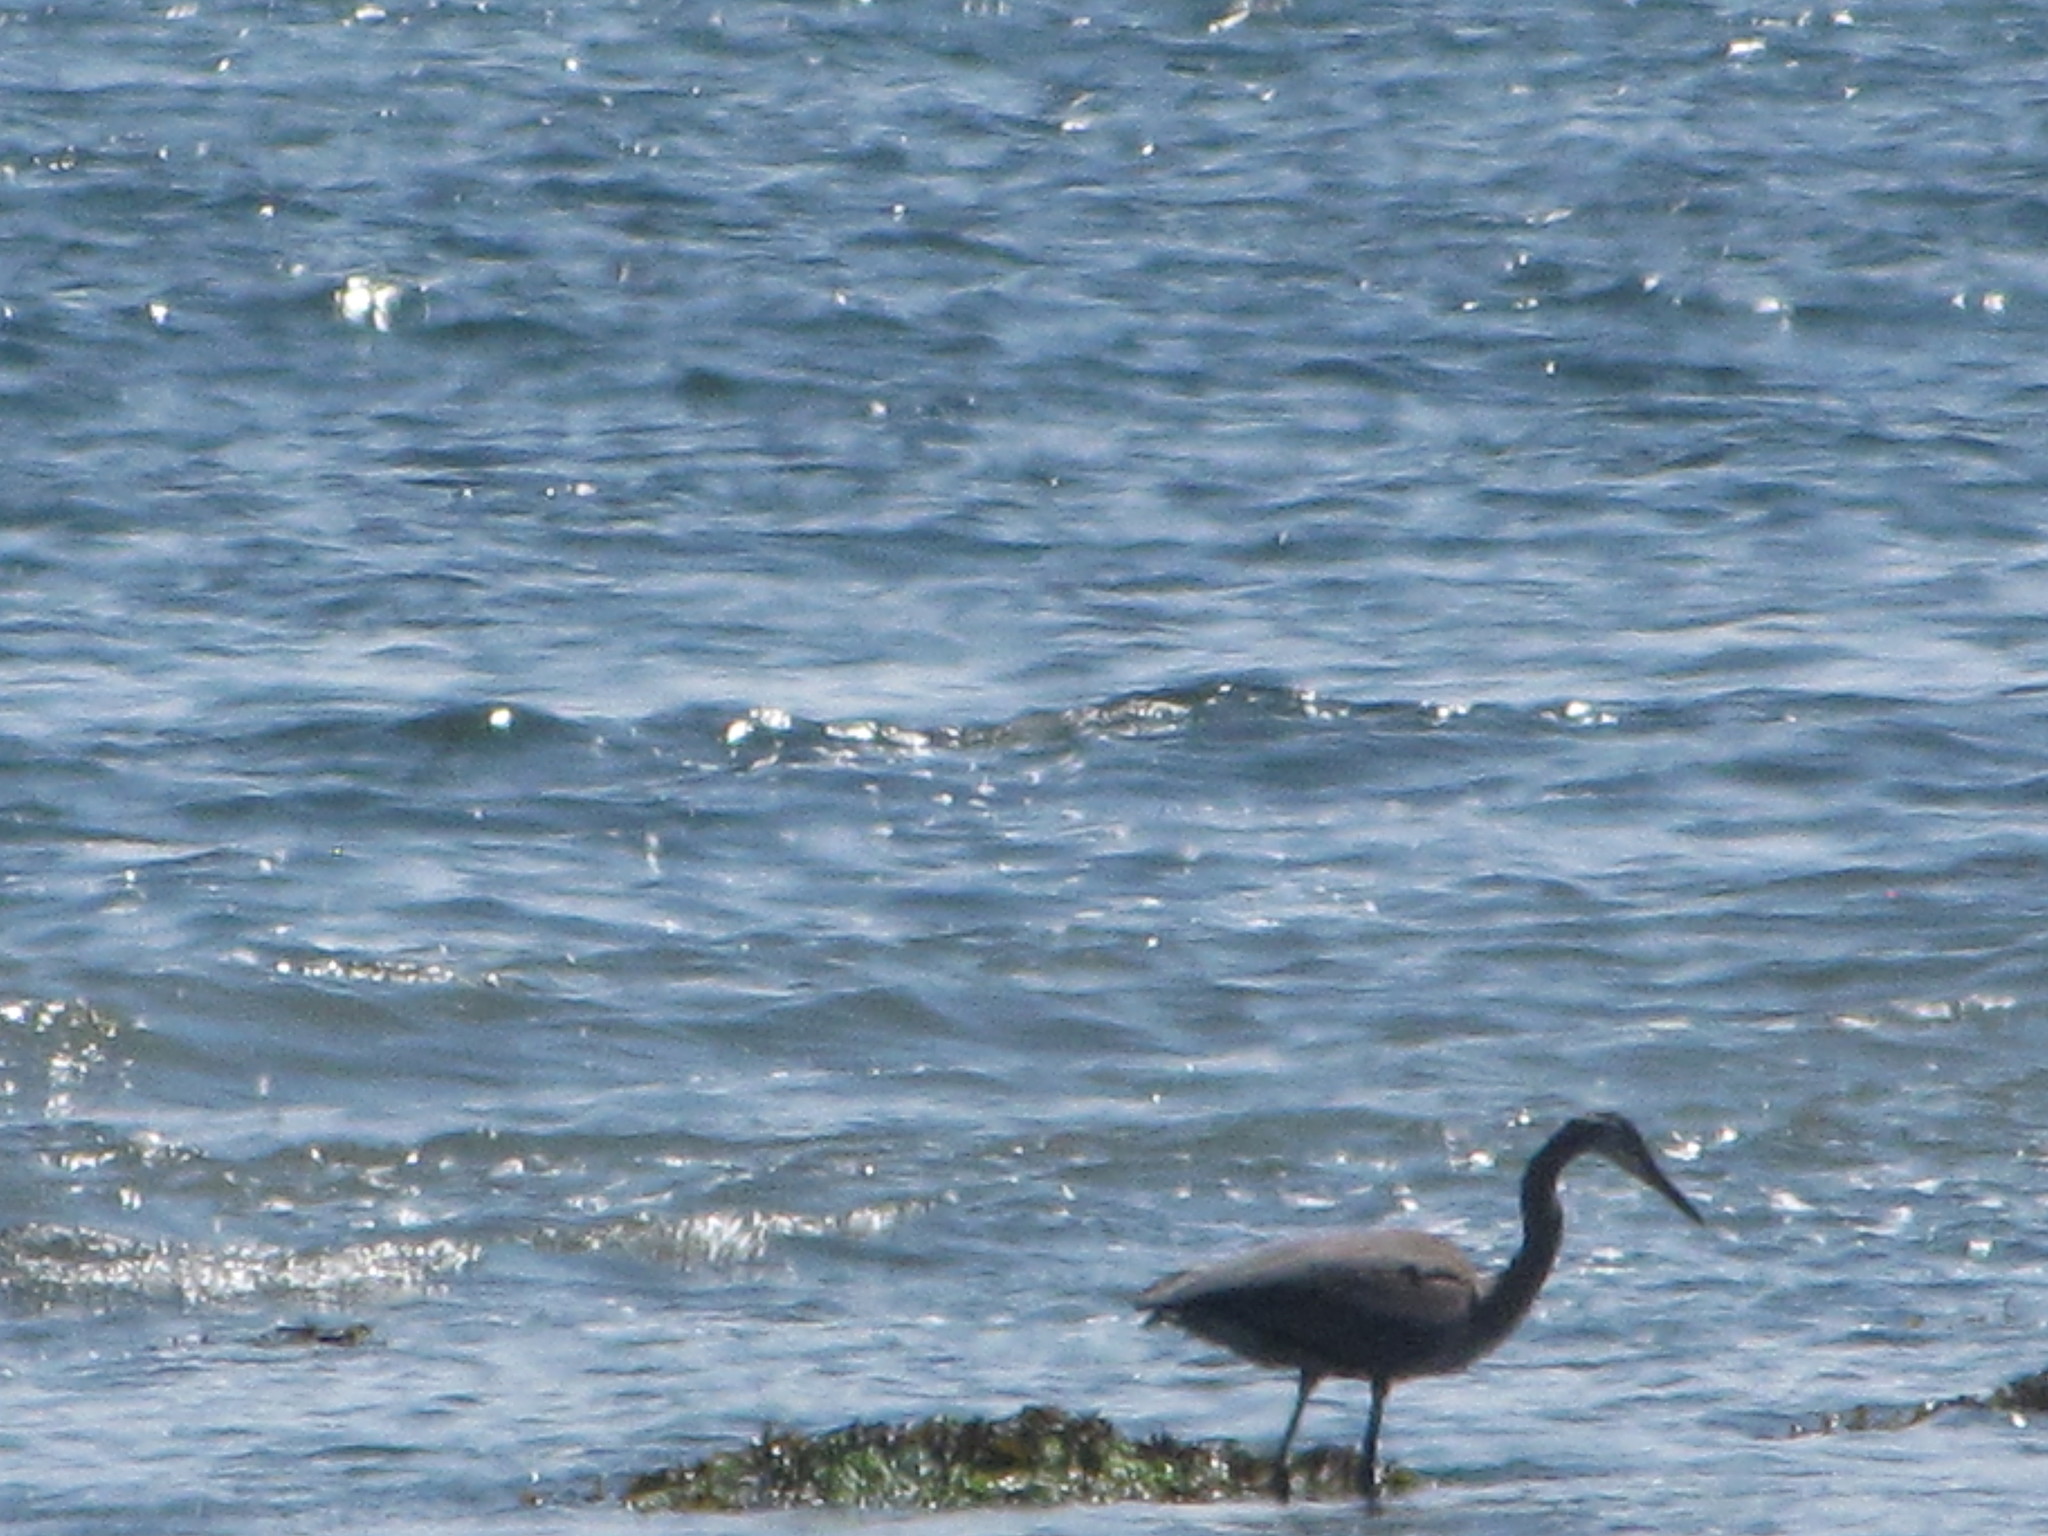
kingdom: Animalia
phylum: Chordata
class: Aves
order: Pelecaniformes
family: Ardeidae
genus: Ardea
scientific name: Ardea herodias
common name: Great blue heron
